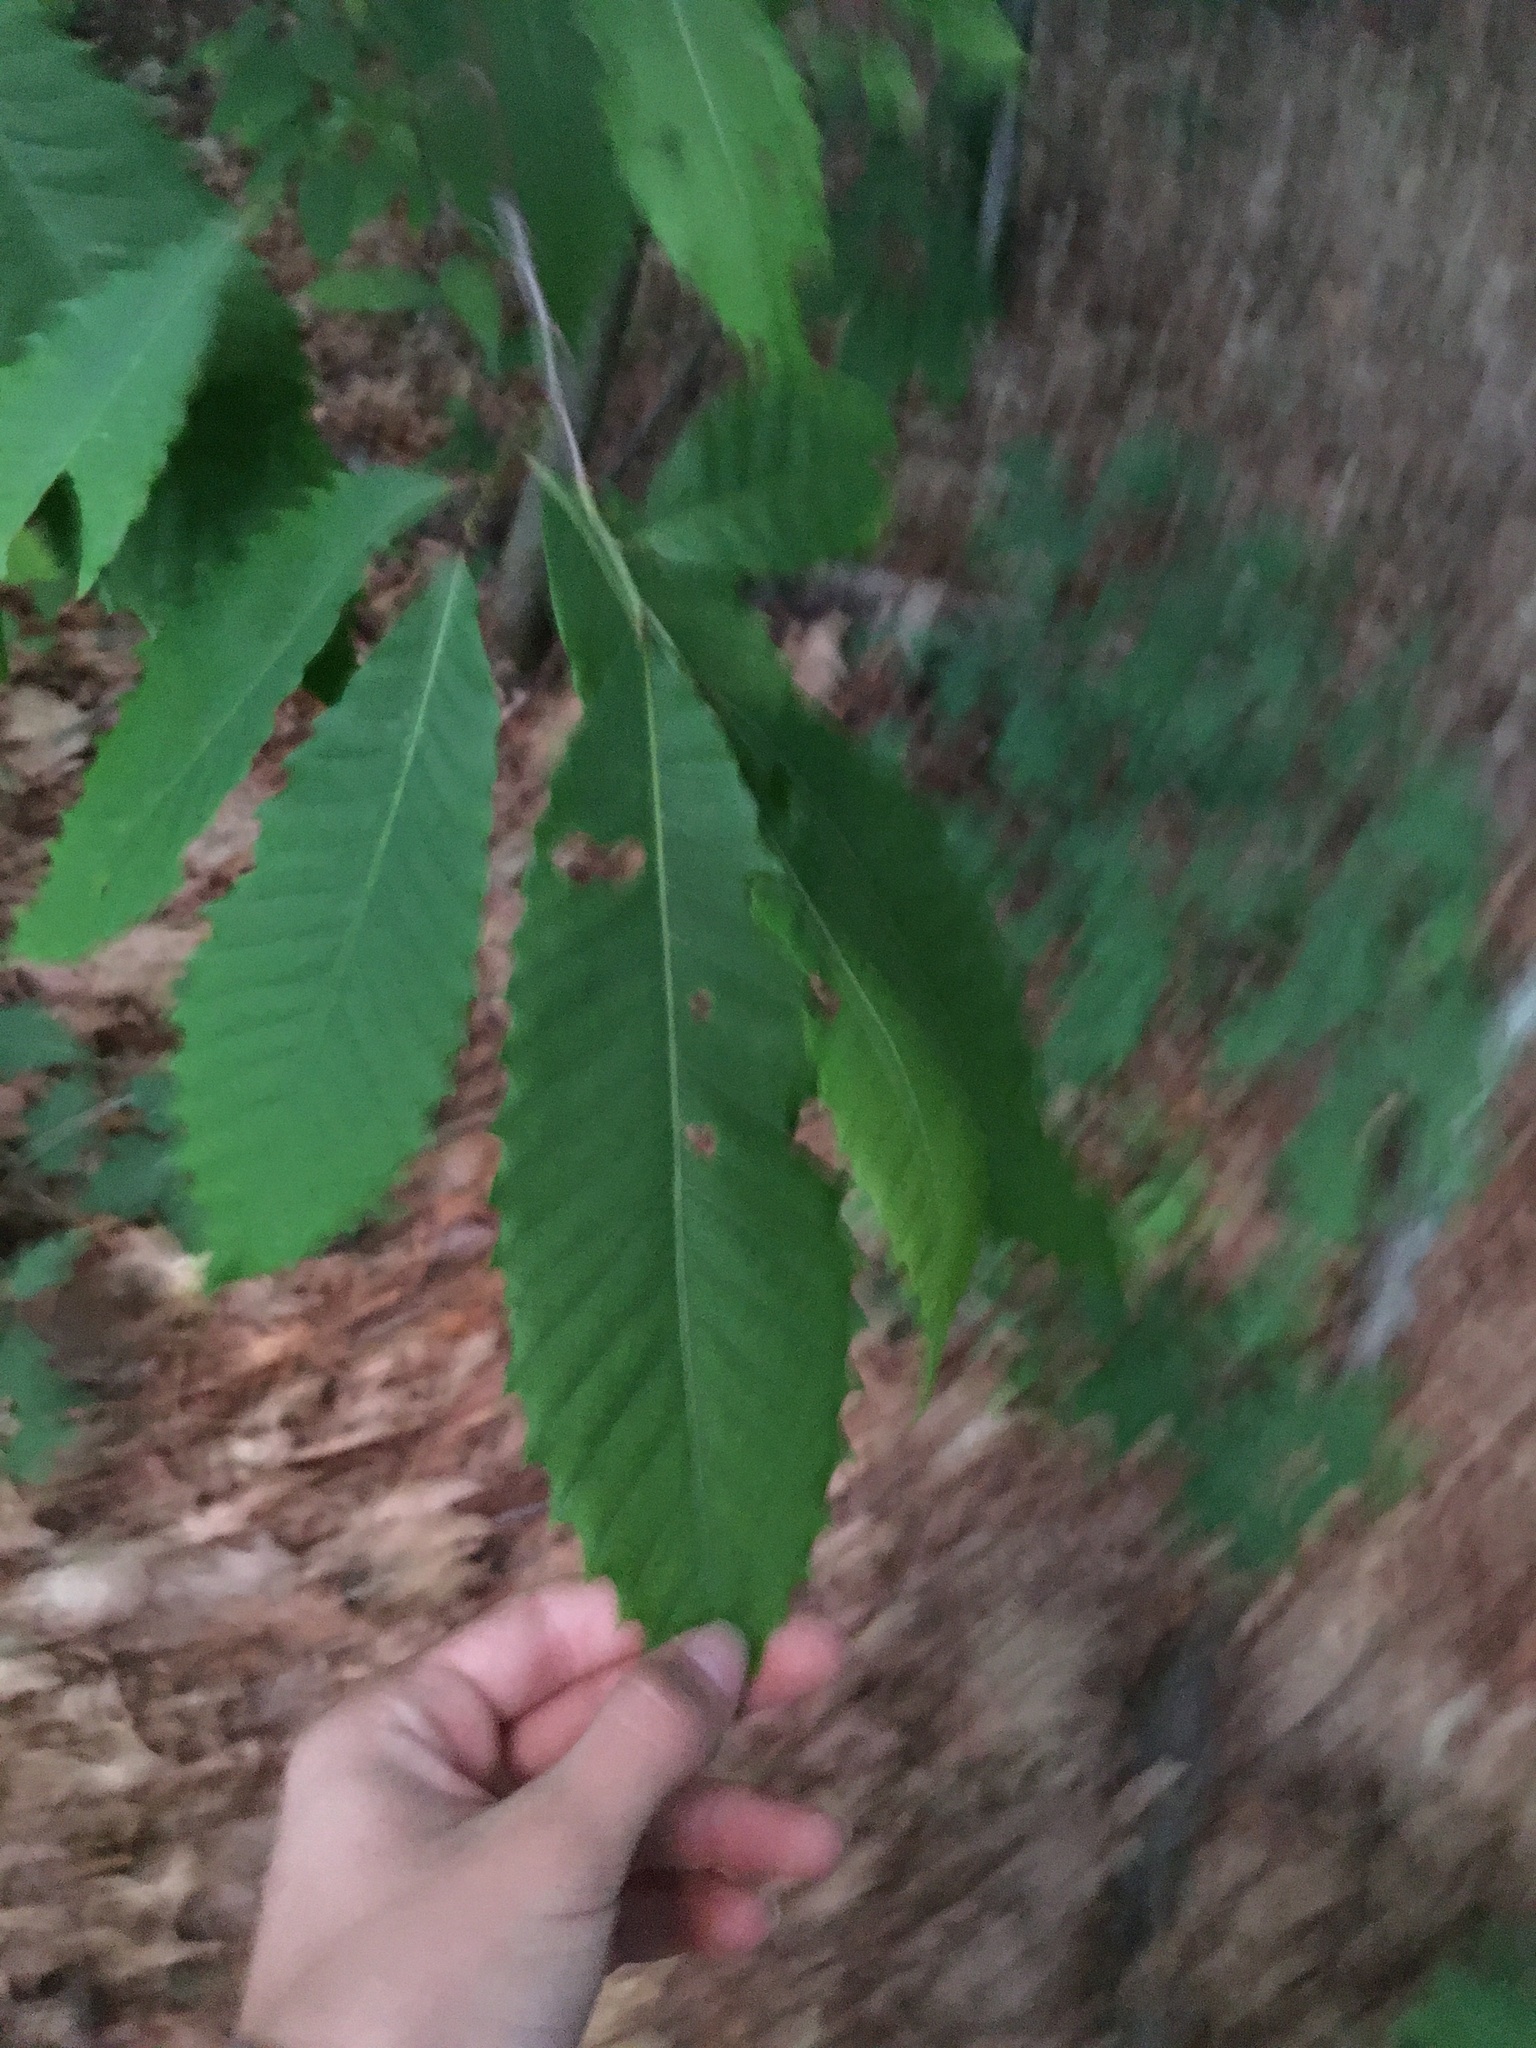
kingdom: Plantae
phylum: Tracheophyta
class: Magnoliopsida
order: Fagales
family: Fagaceae
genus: Castanea
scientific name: Castanea dentata
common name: American chestnut
